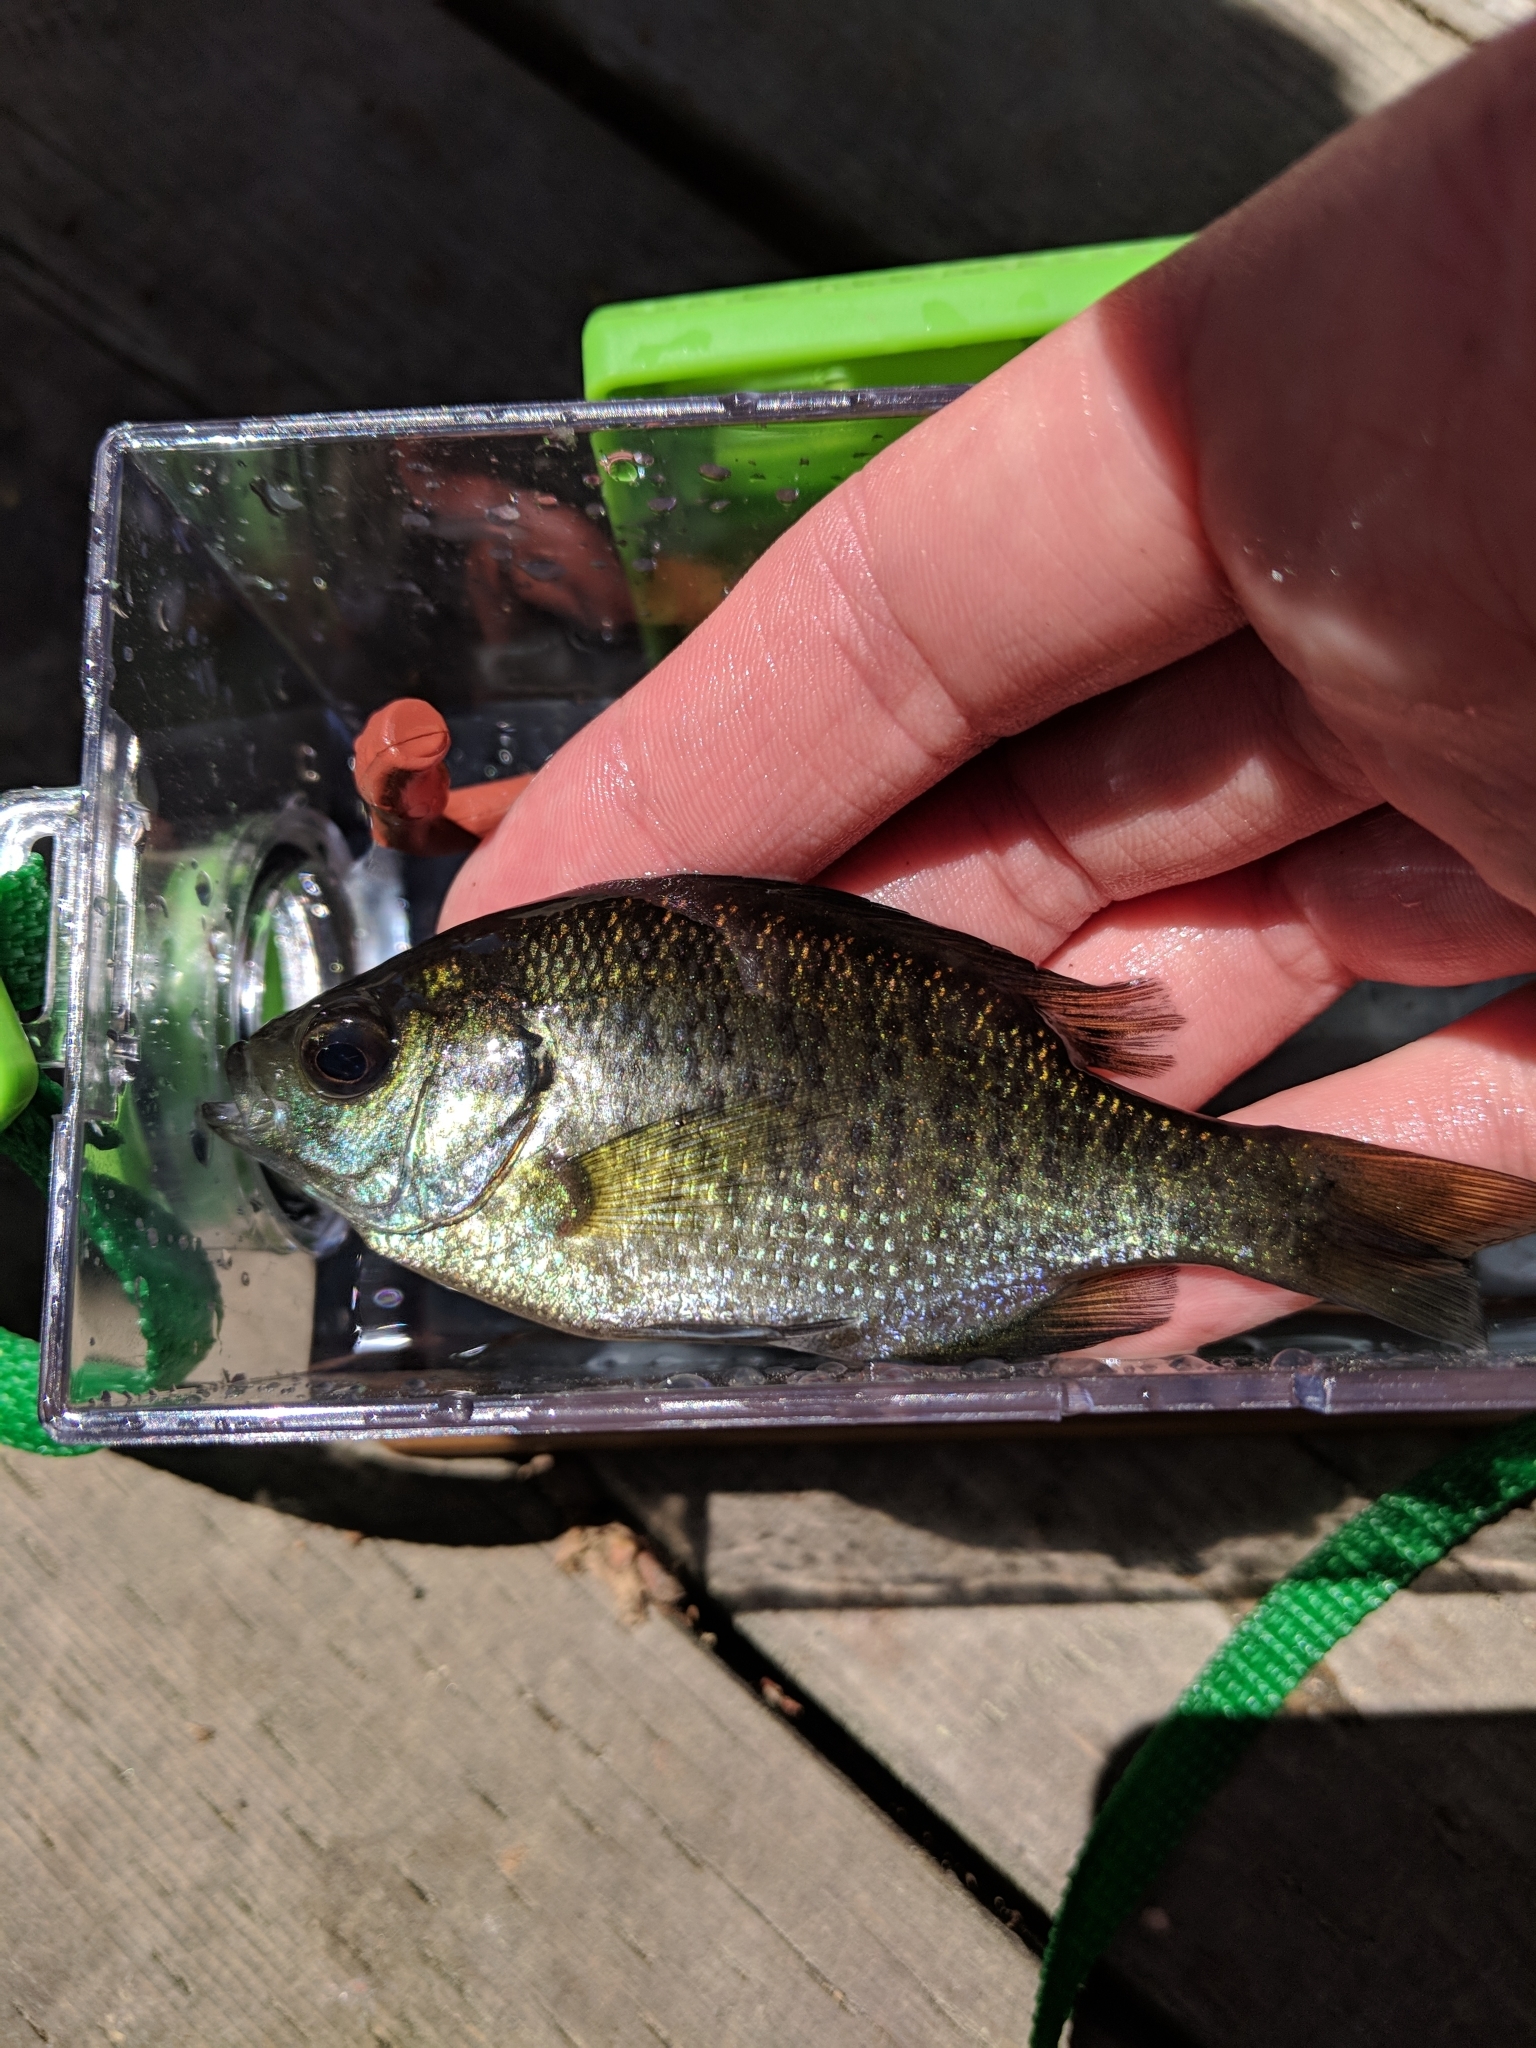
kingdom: Animalia
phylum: Chordata
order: Perciformes
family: Centrarchidae
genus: Lepomis
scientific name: Lepomis macrochirus
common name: Bluegill
